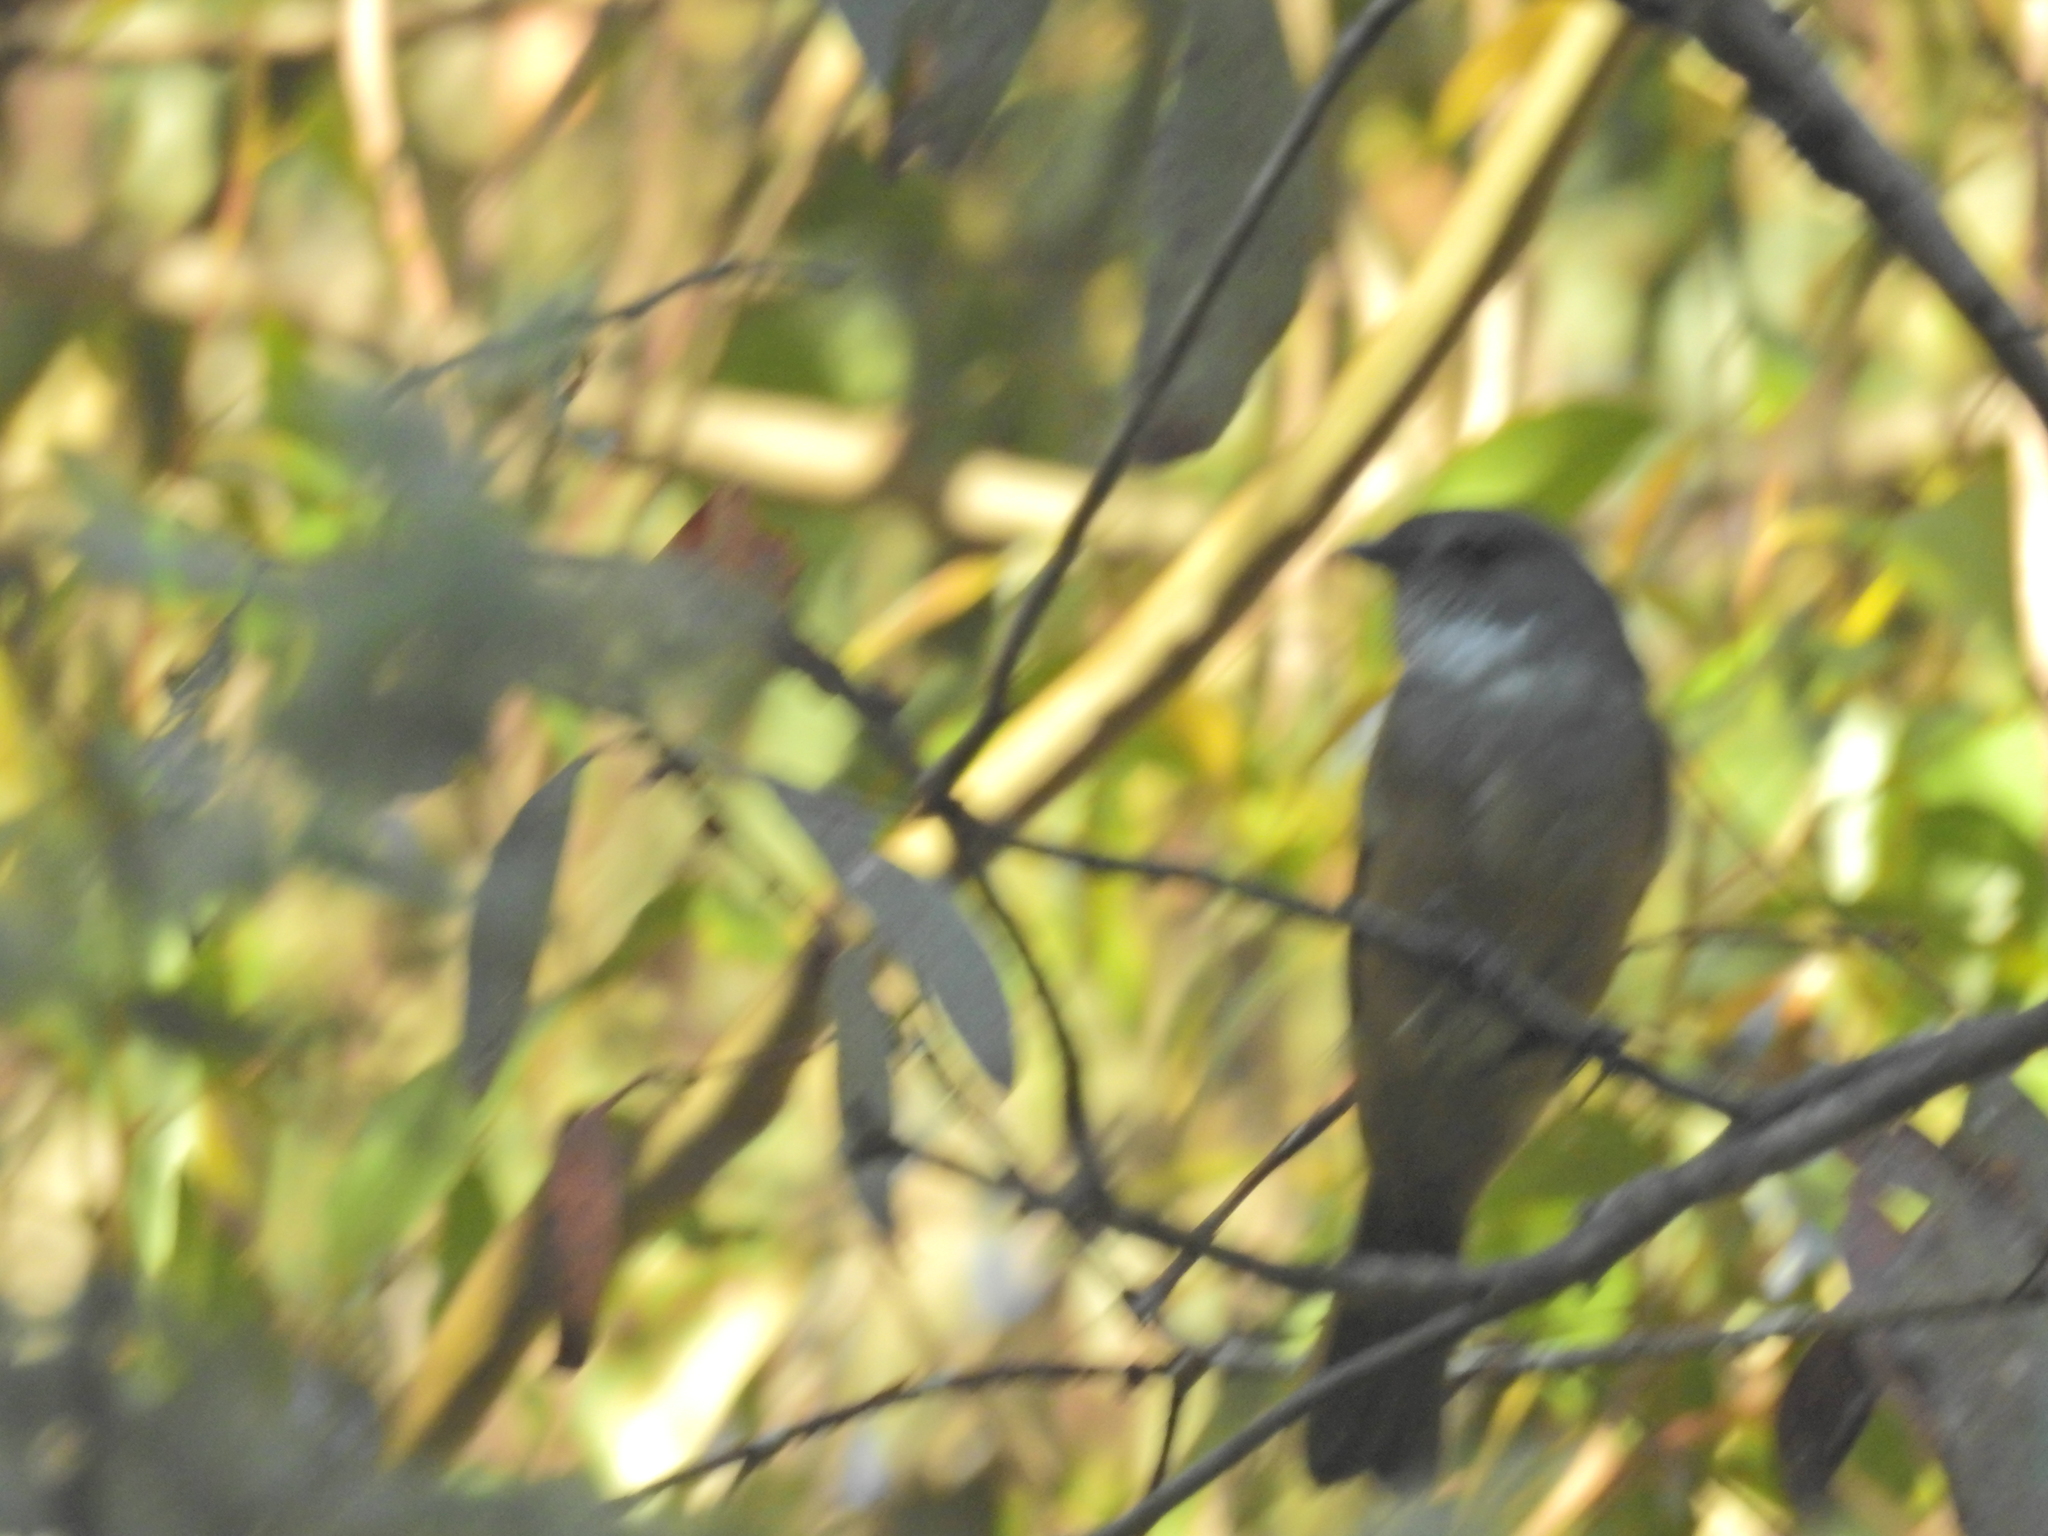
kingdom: Animalia
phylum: Chordata
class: Aves
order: Passeriformes
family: Pachycephalidae
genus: Pachycephala
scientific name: Pachycephala olivacea
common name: Olive whistler
